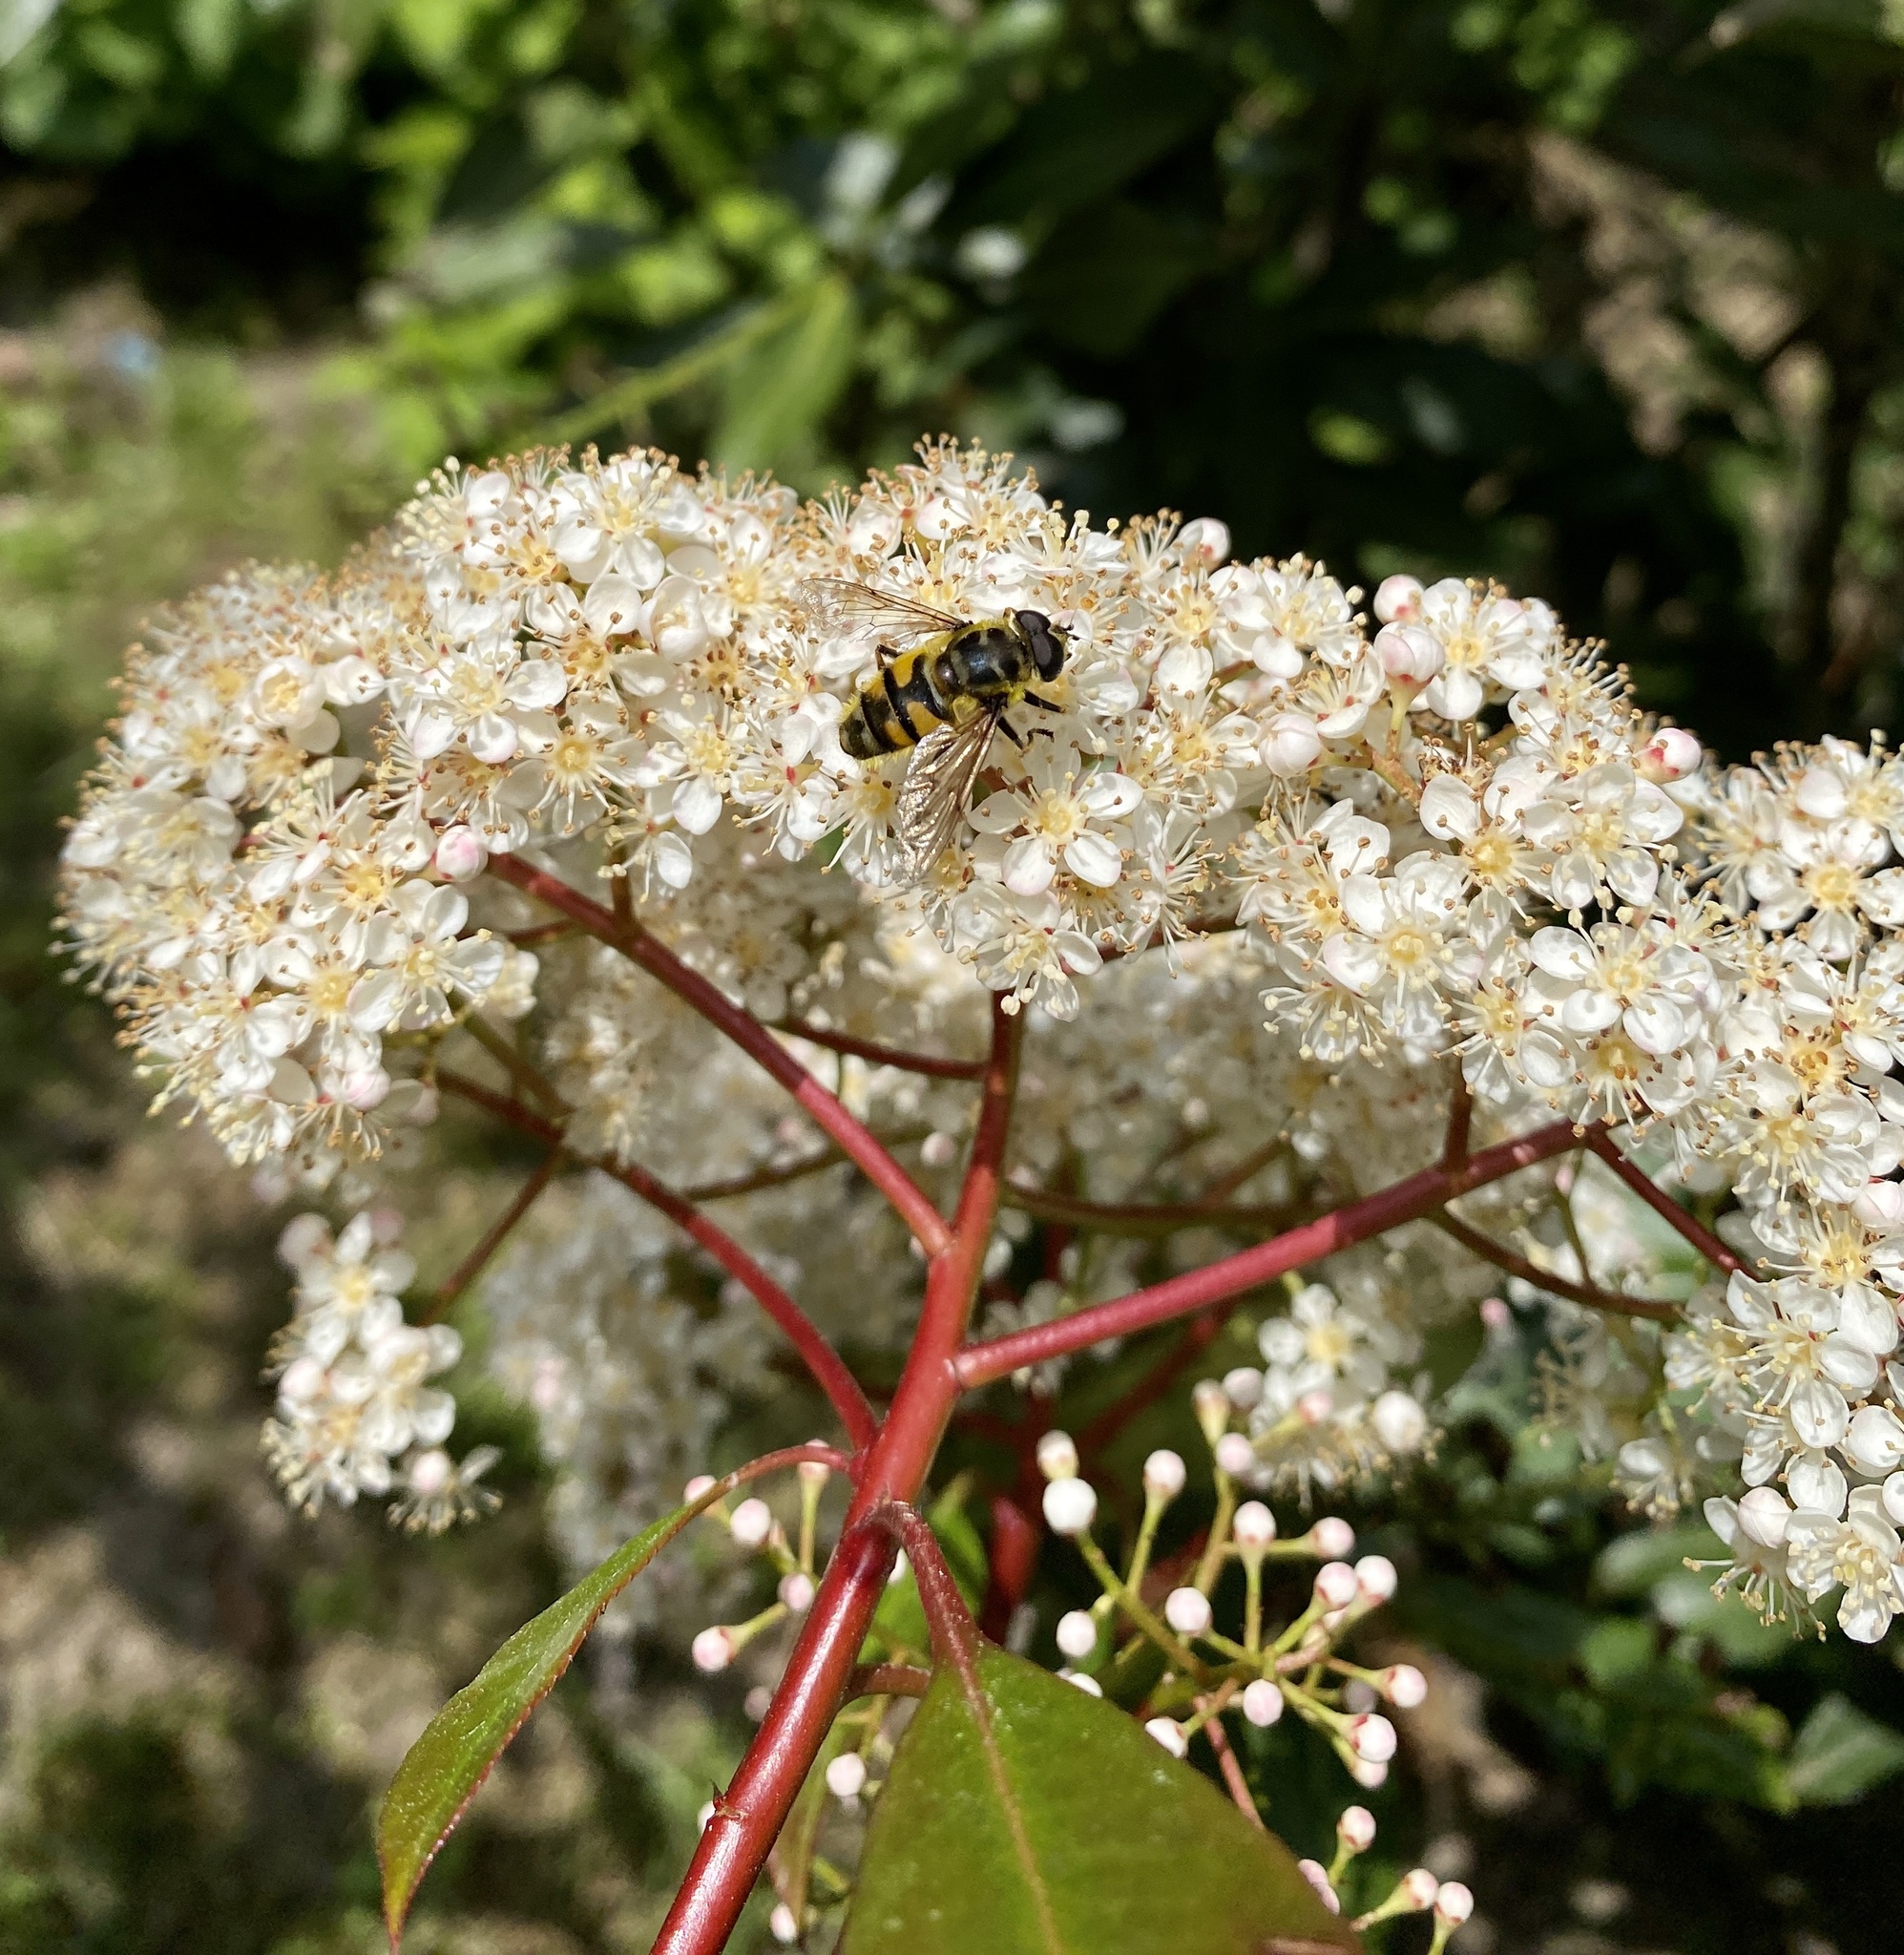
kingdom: Animalia
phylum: Arthropoda
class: Insecta
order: Diptera
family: Syrphidae
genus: Myathropa
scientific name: Myathropa florea
